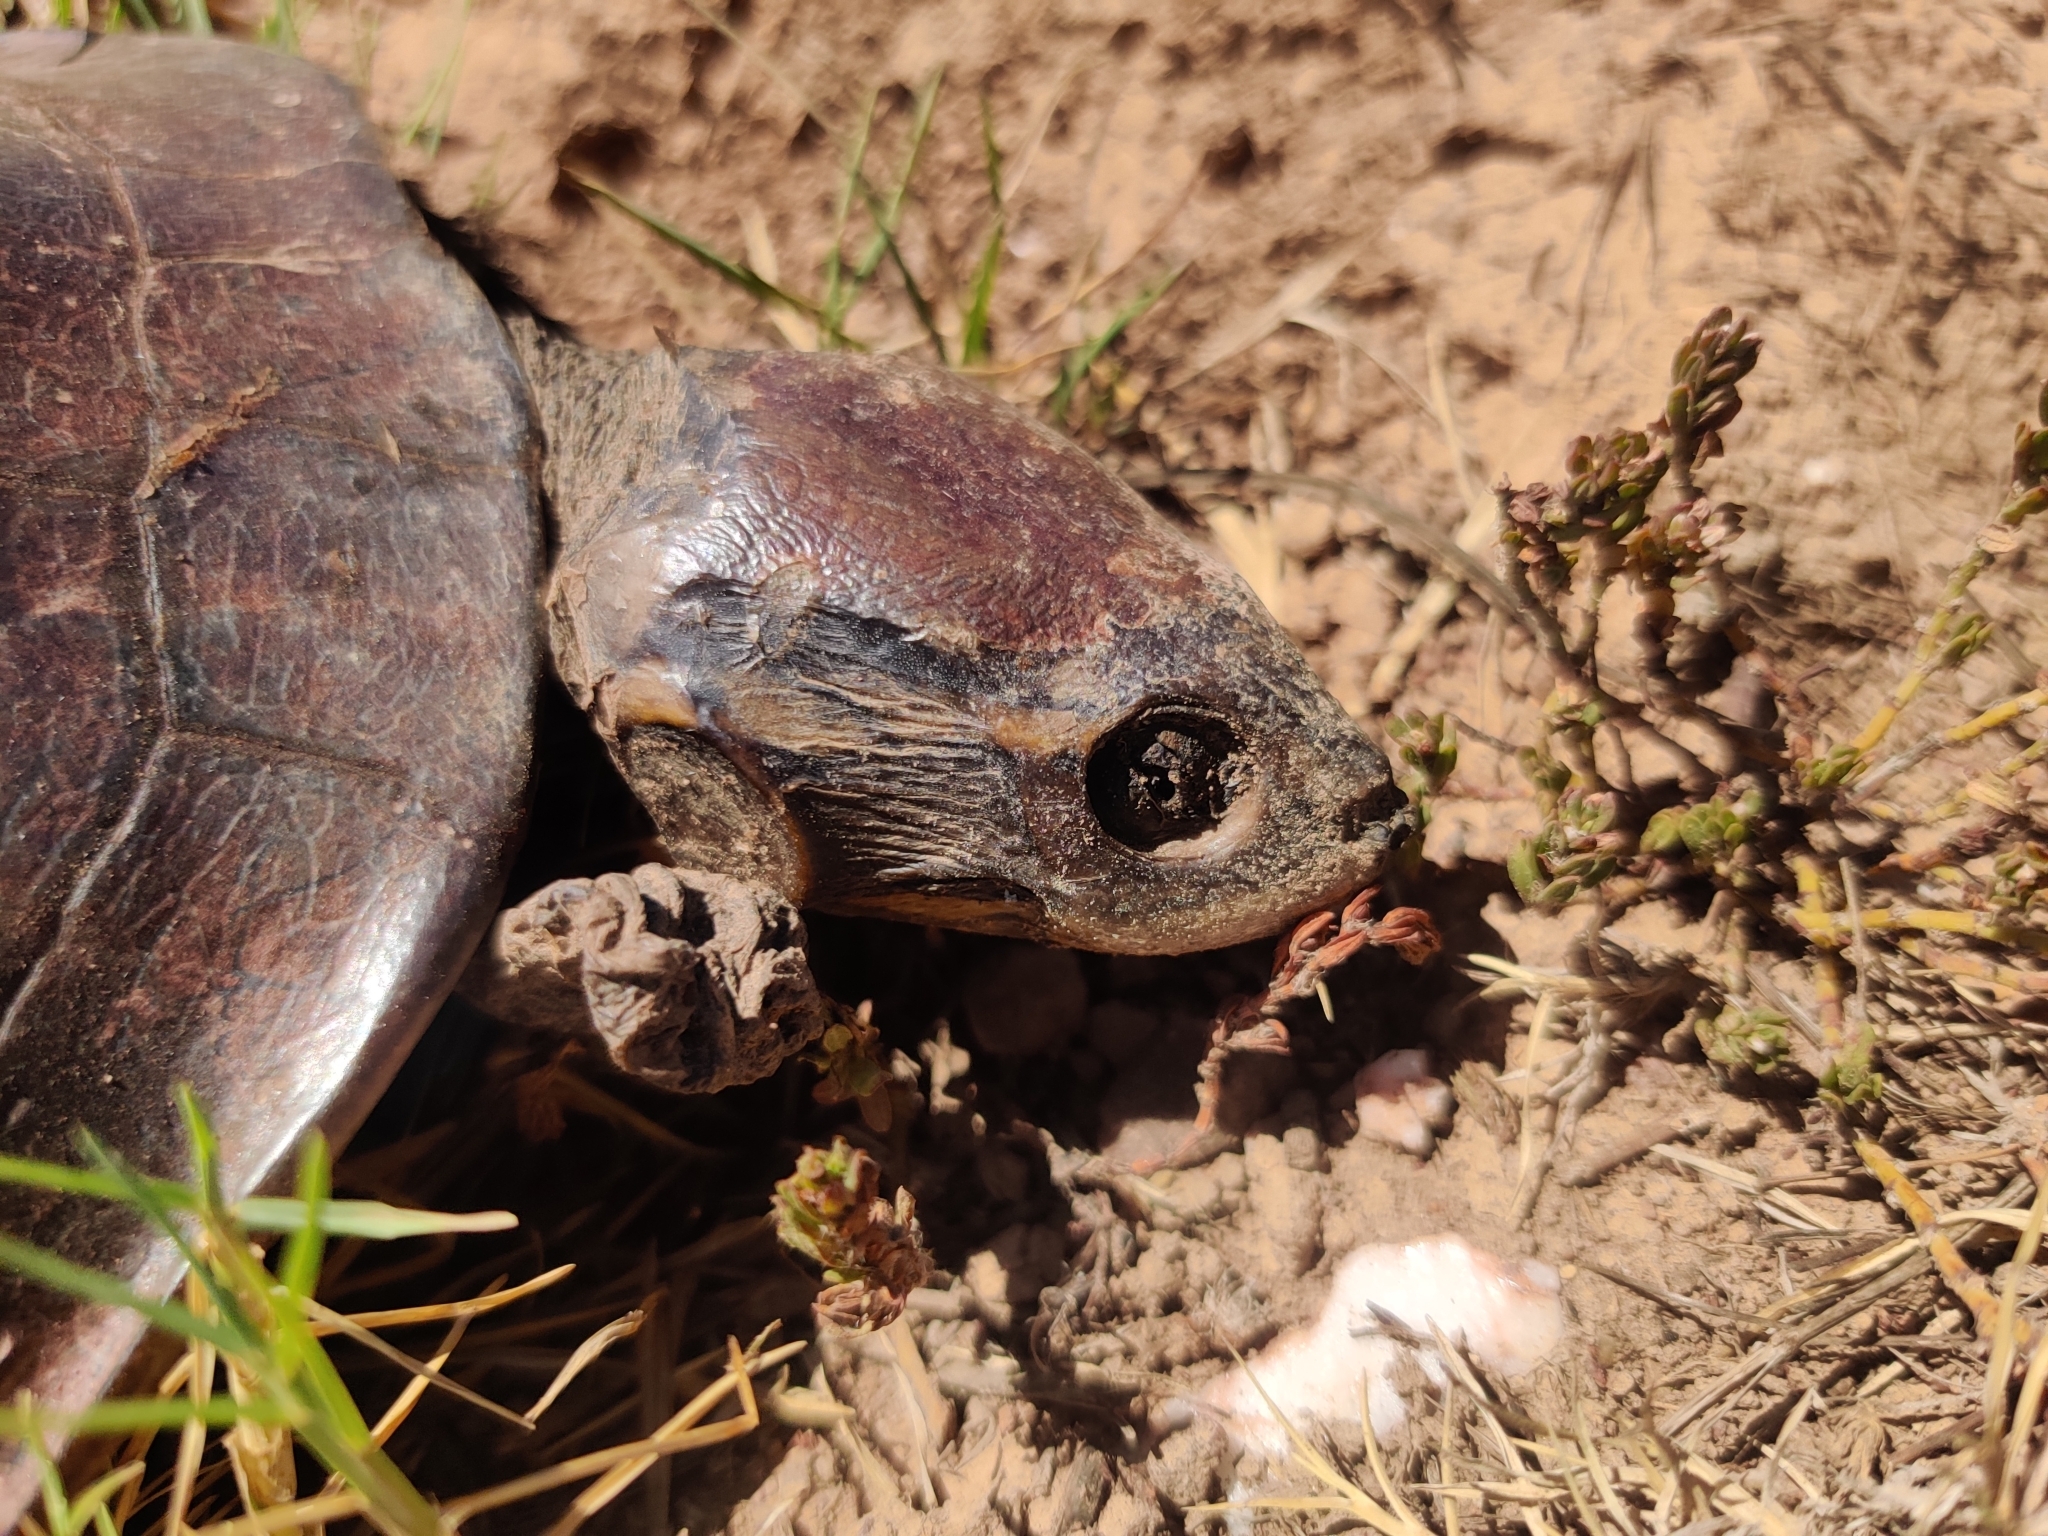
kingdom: Animalia
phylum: Chordata
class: Testudines
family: Chelidae
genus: Emydura
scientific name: Emydura subglobosa
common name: Redbelly shortneck turtle
